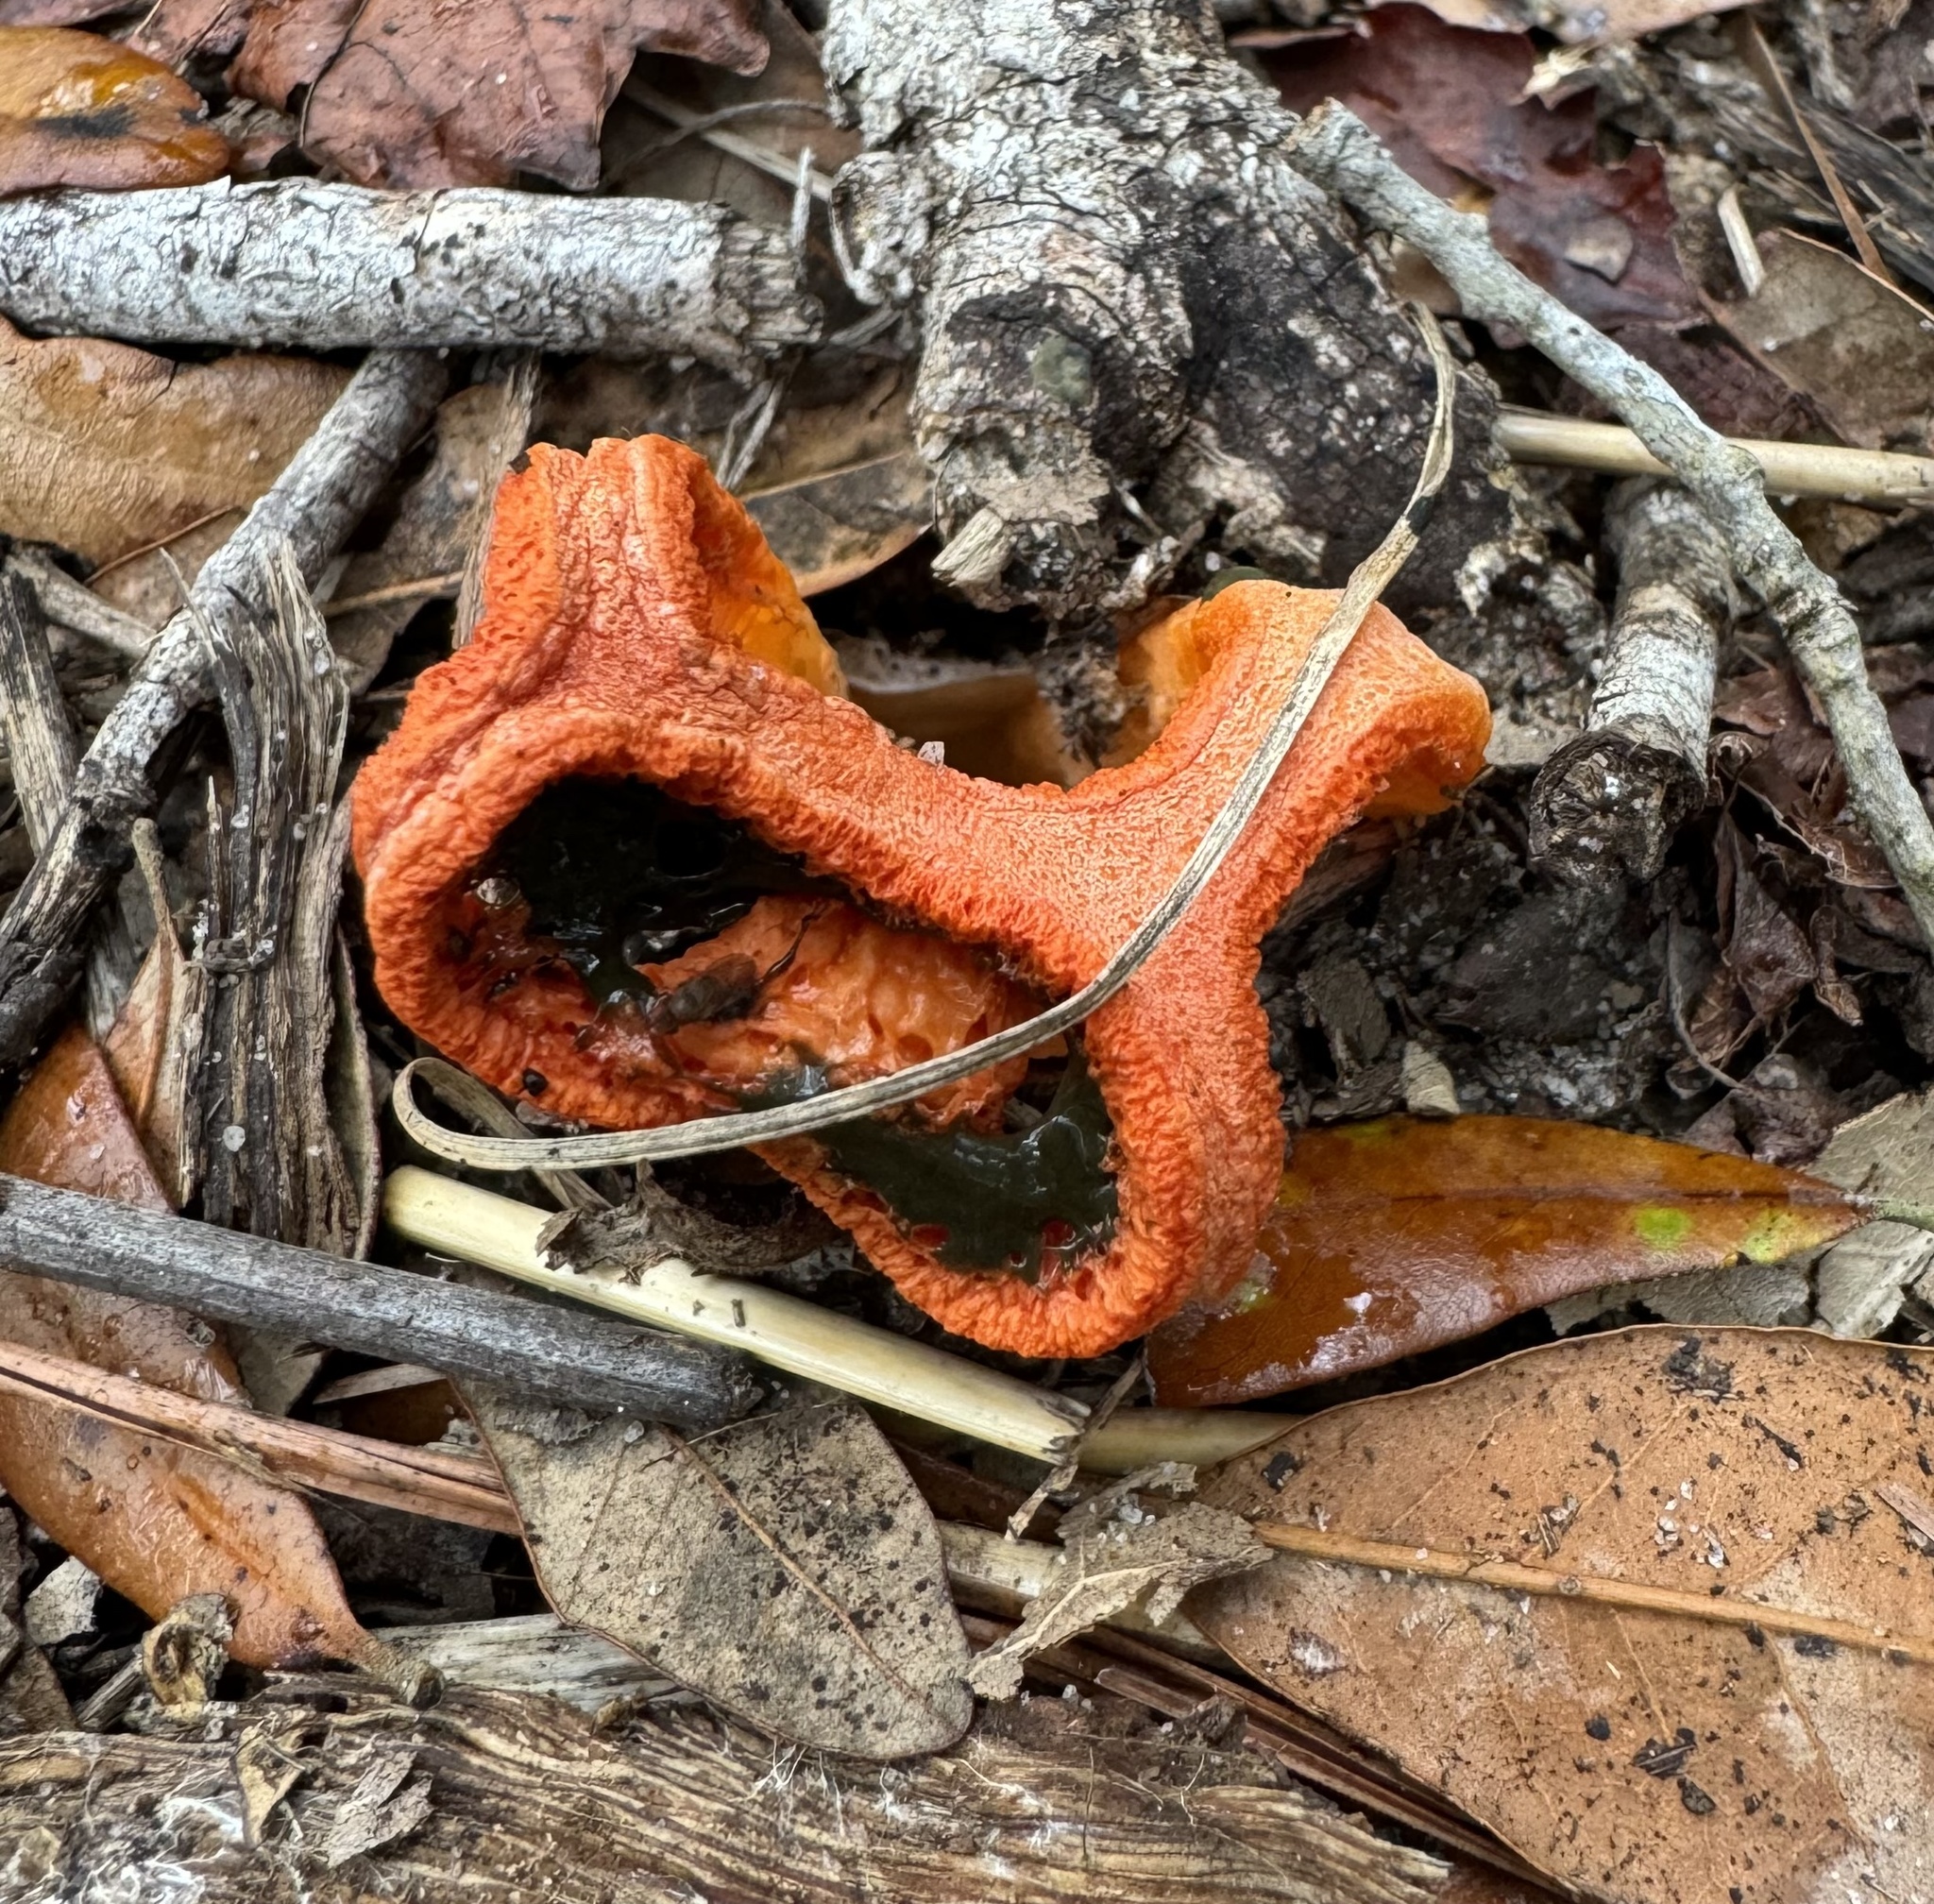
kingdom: Fungi
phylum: Basidiomycota
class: Agaricomycetes
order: Phallales
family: Phallaceae
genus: Clathrus
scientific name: Clathrus columnatus
